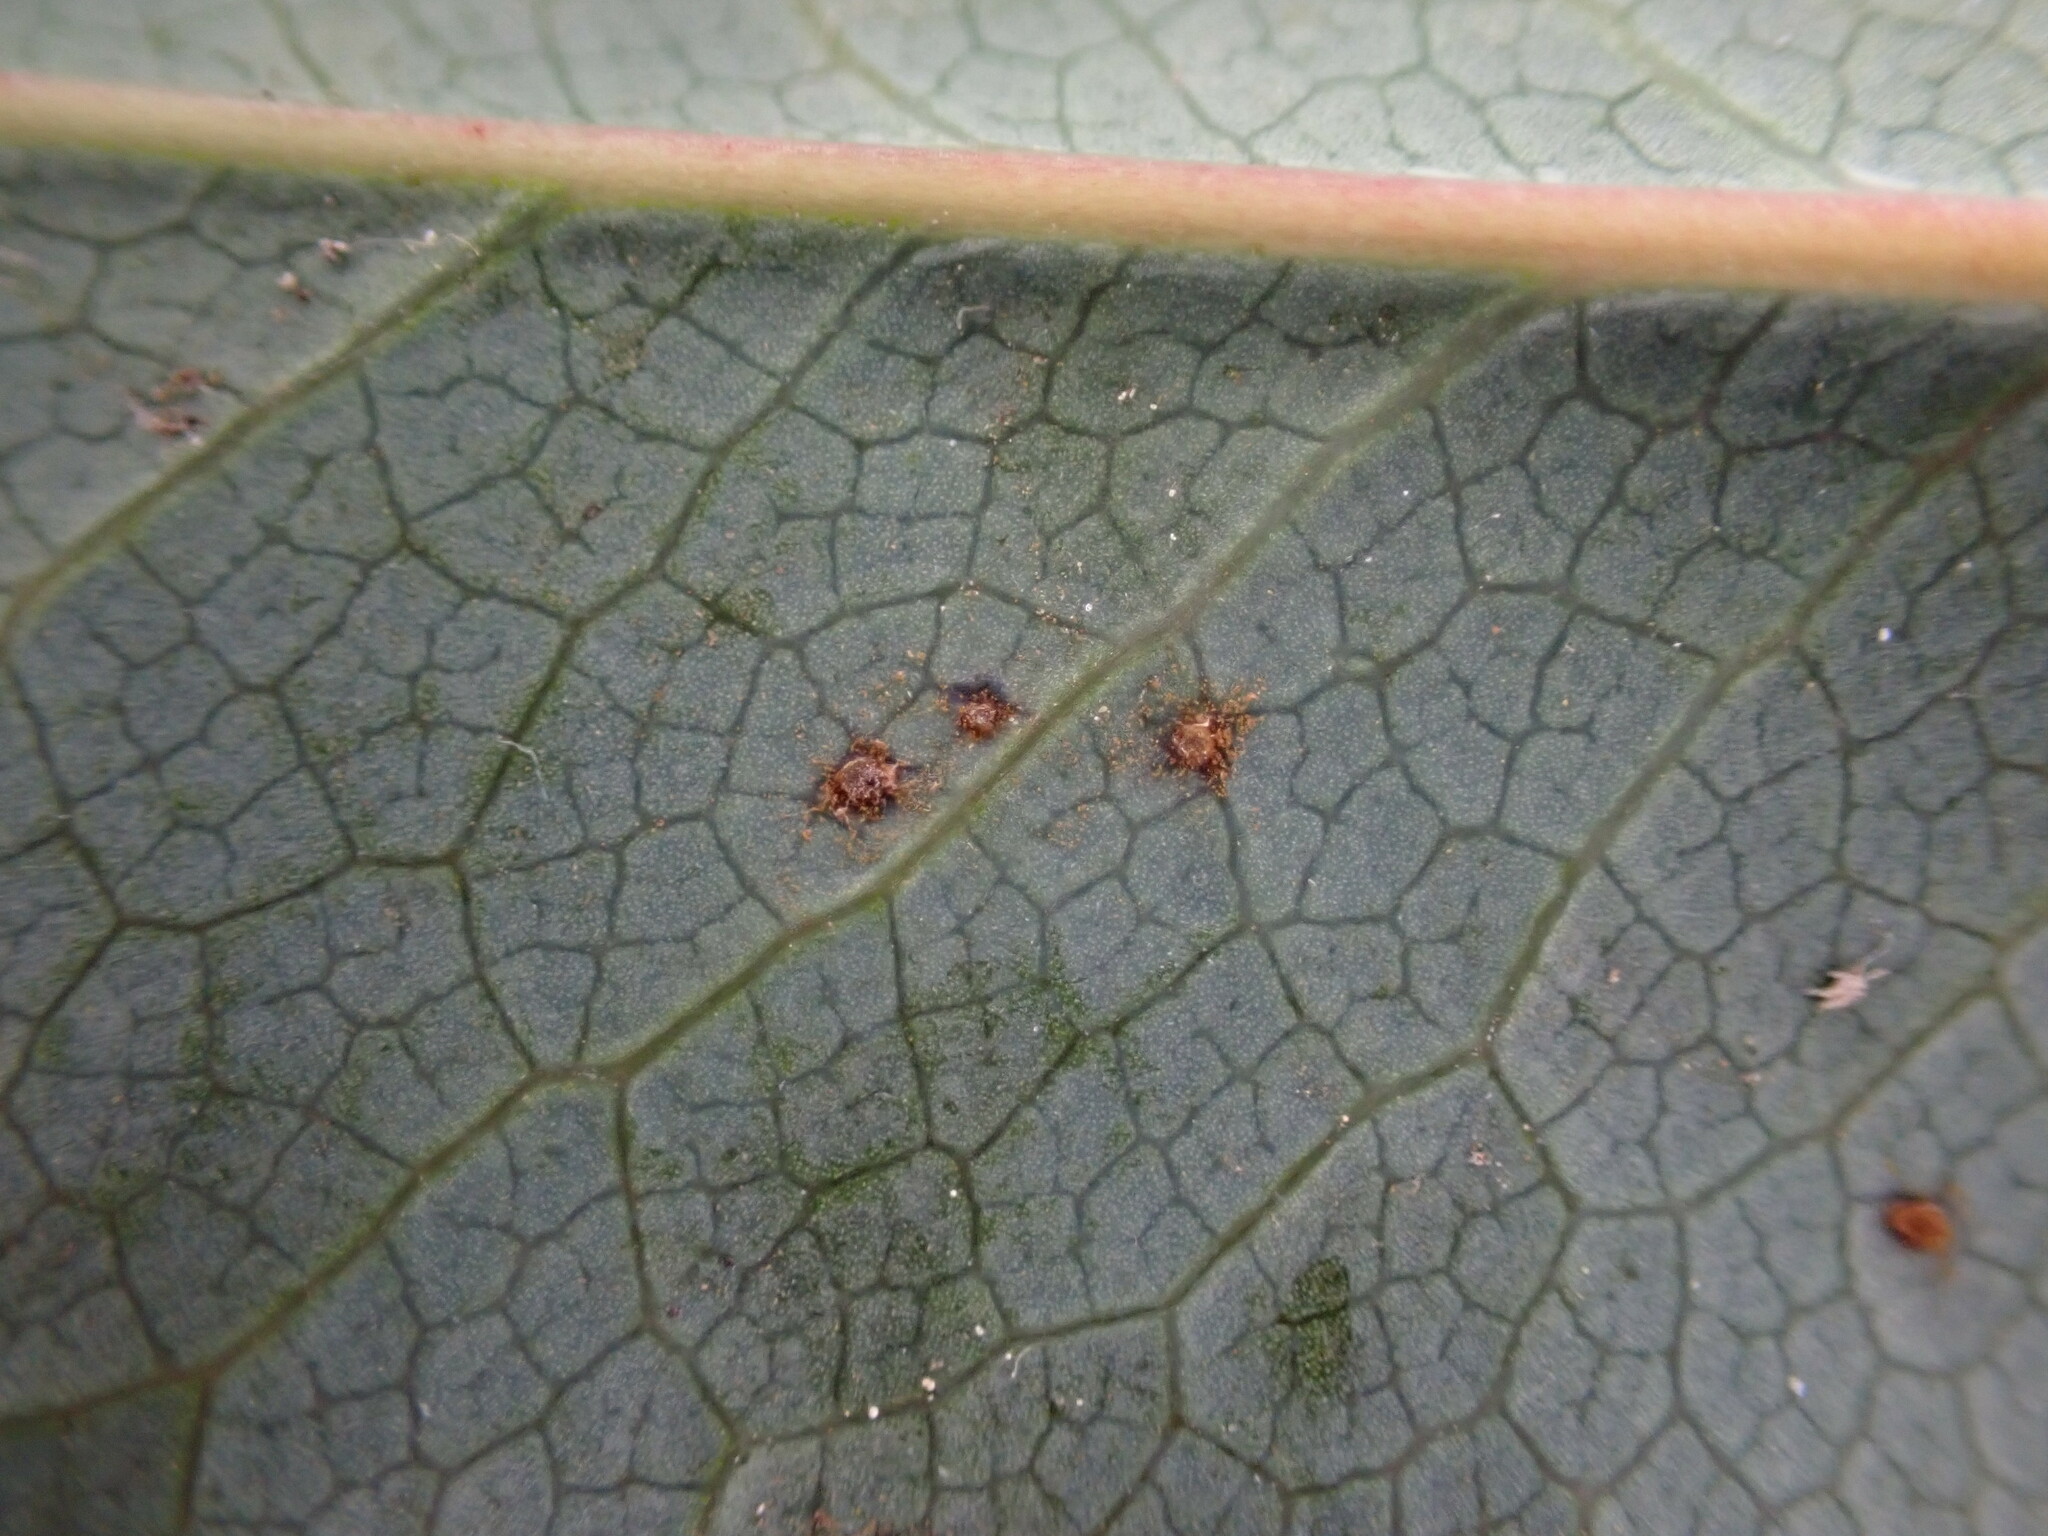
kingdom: Fungi
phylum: Basidiomycota
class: Pucciniomycetes
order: Pucciniales
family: Pucciniaceae
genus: Cumminsiella
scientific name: Cumminsiella mirabilissima
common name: Mahonia rust
